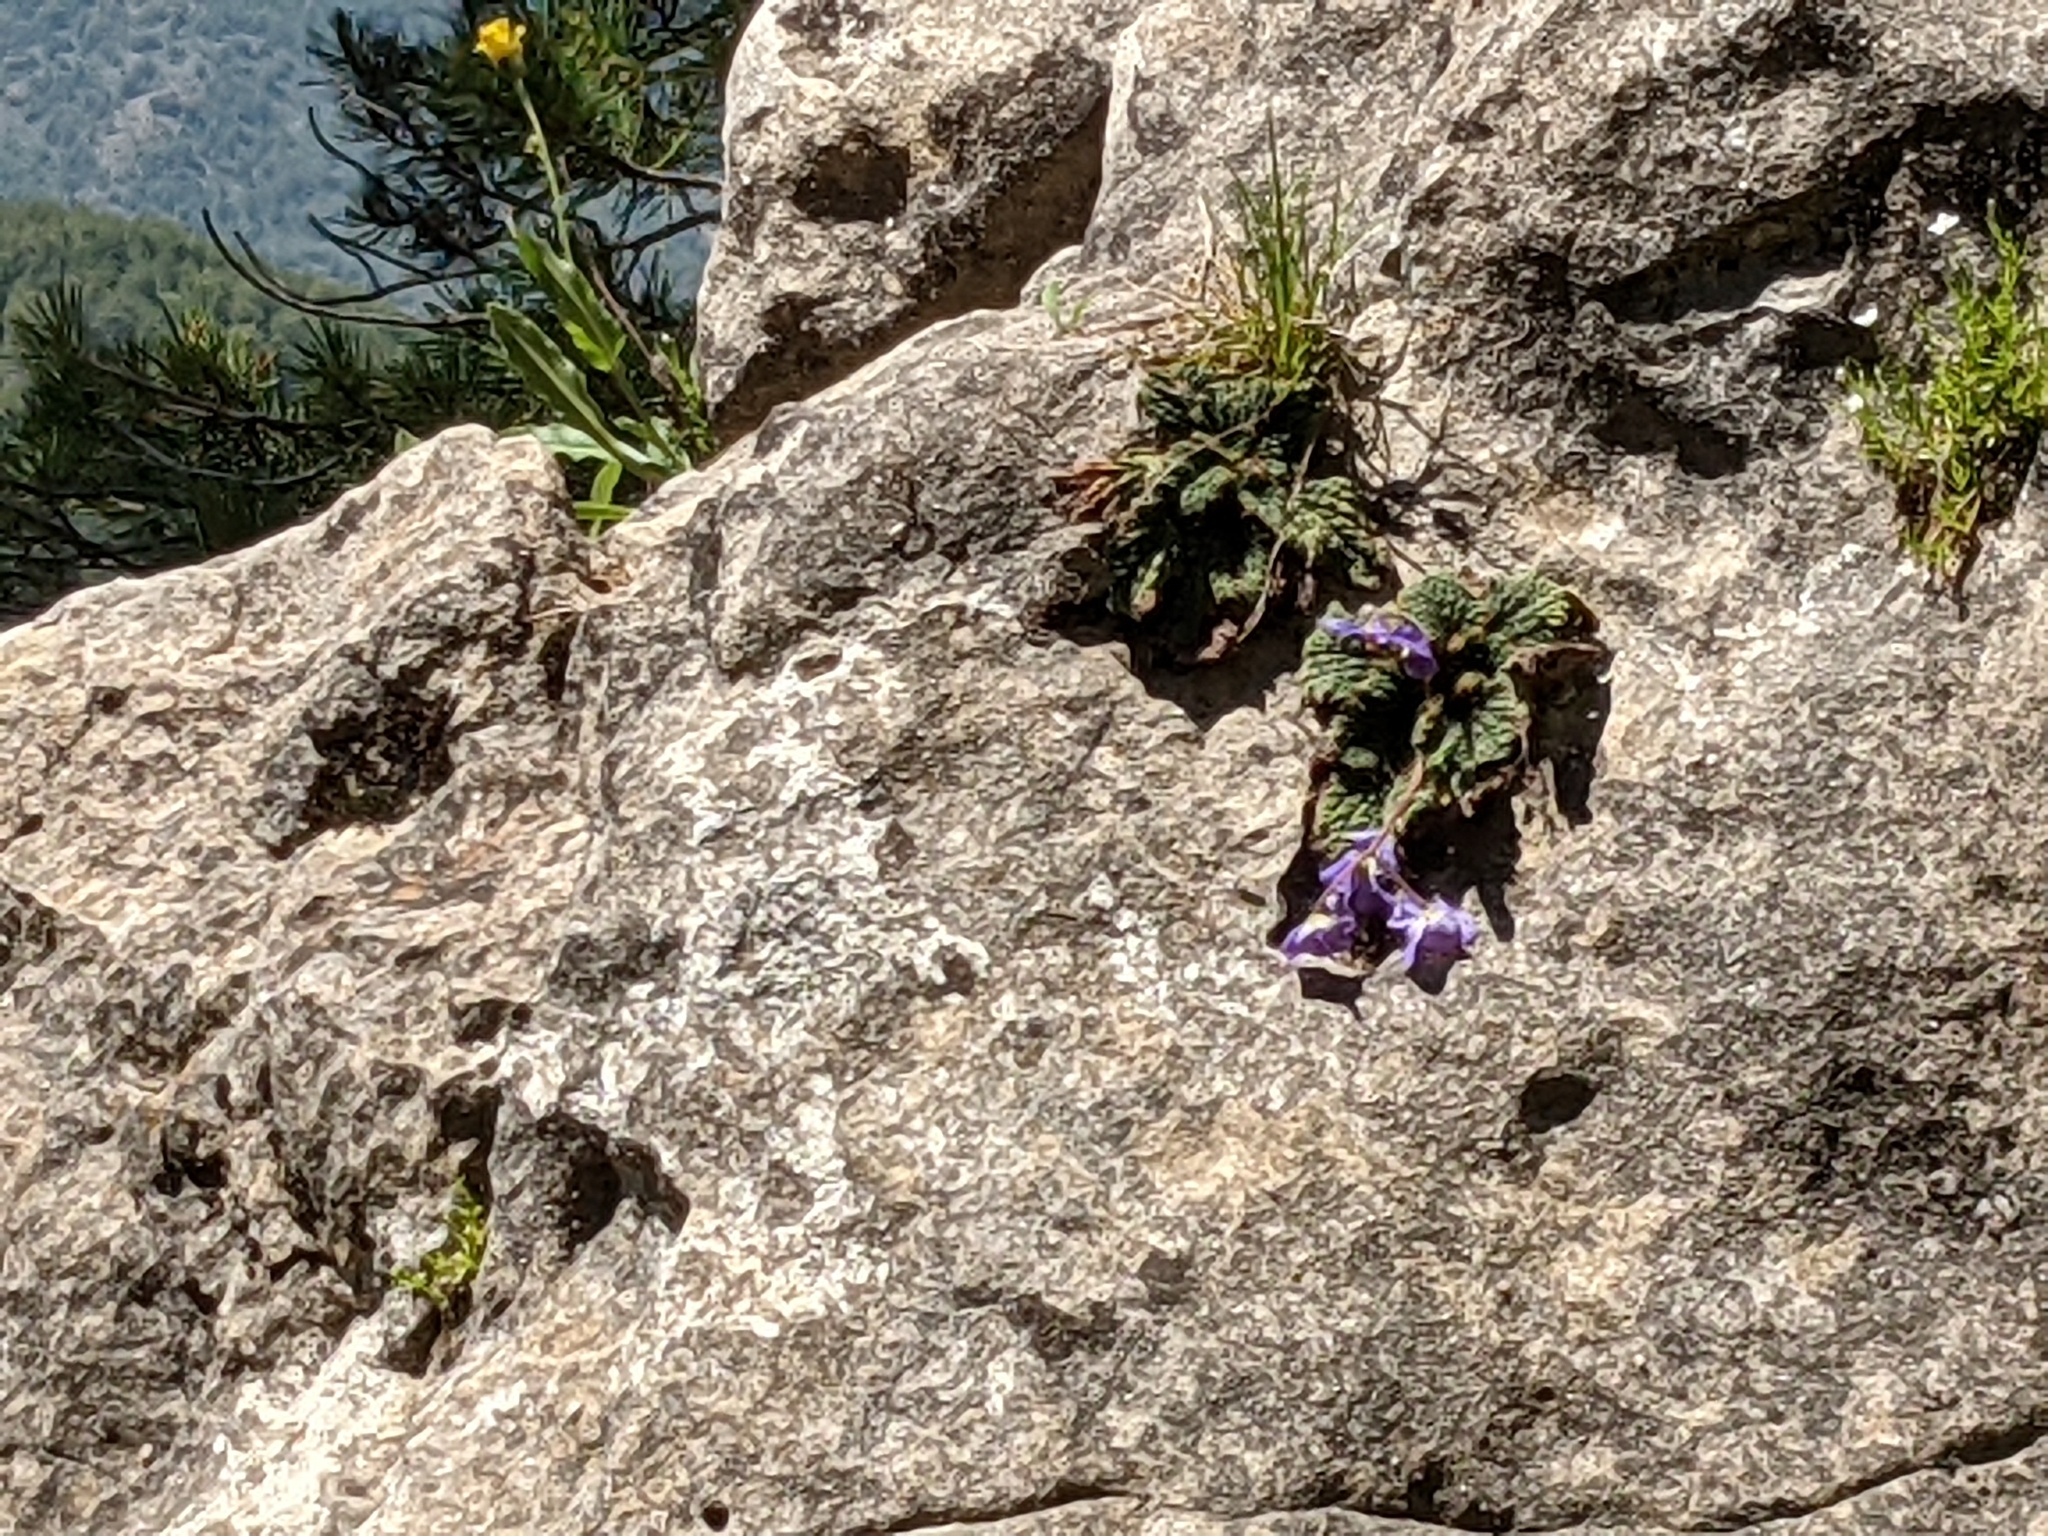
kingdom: Plantae
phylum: Tracheophyta
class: Magnoliopsida
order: Lamiales
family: Gesneriaceae
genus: Ramonda
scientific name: Ramonda myconi
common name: Pyrenean-violet
